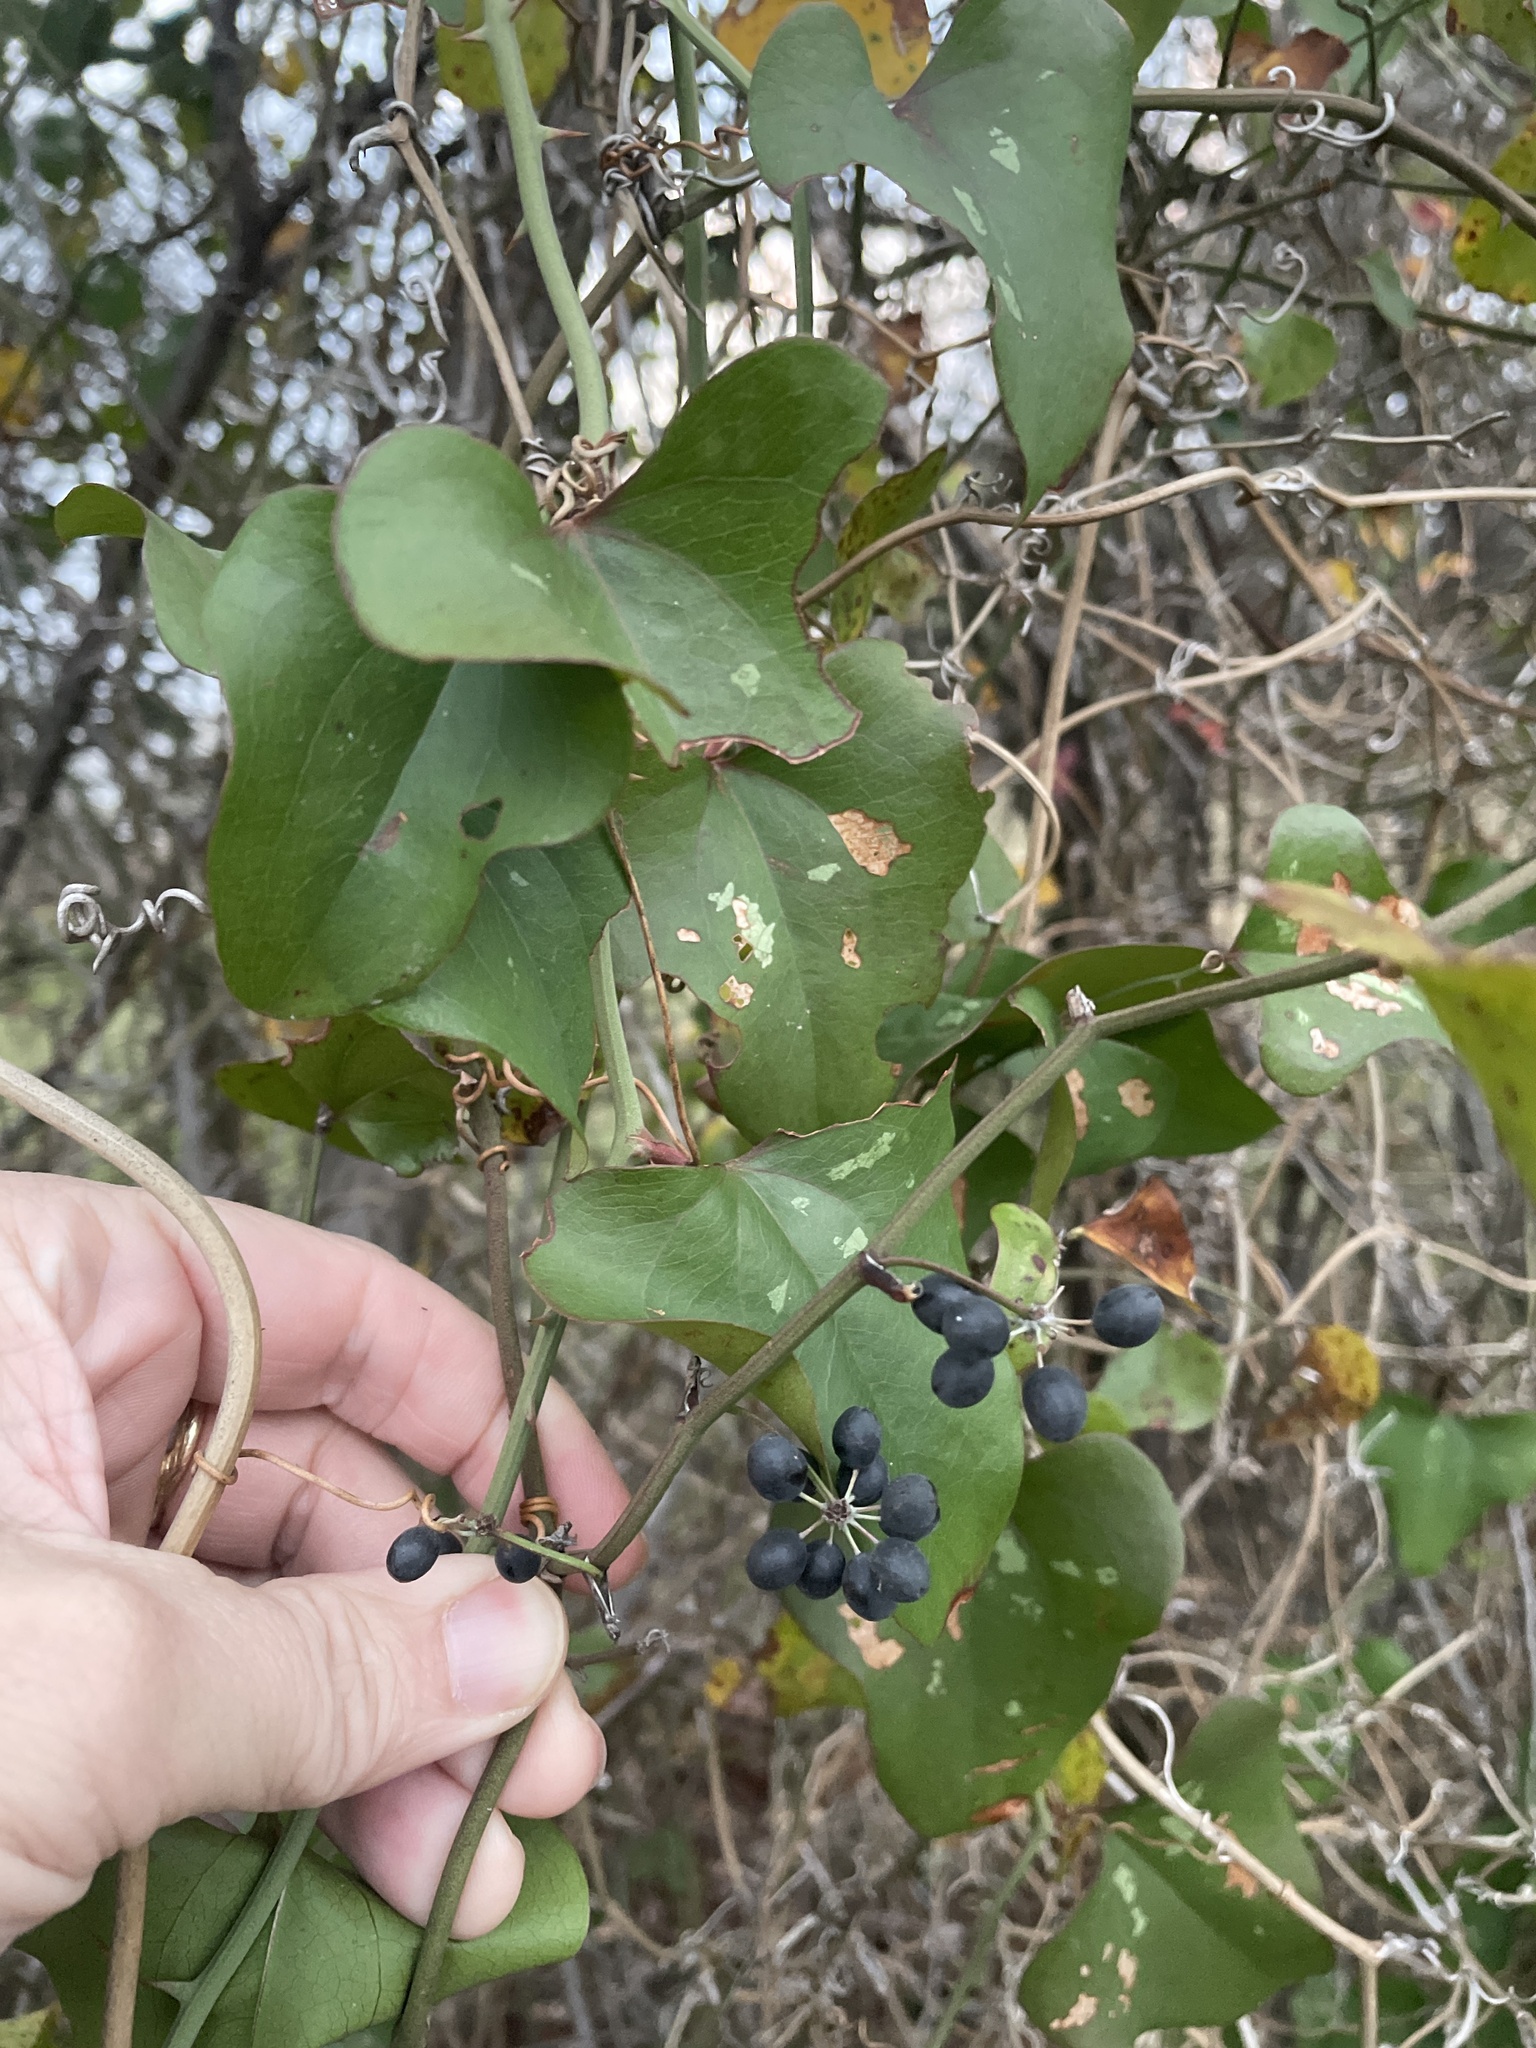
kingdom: Plantae
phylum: Tracheophyta
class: Liliopsida
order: Liliales
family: Smilacaceae
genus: Smilax
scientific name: Smilax bona-nox
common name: Catbrier
